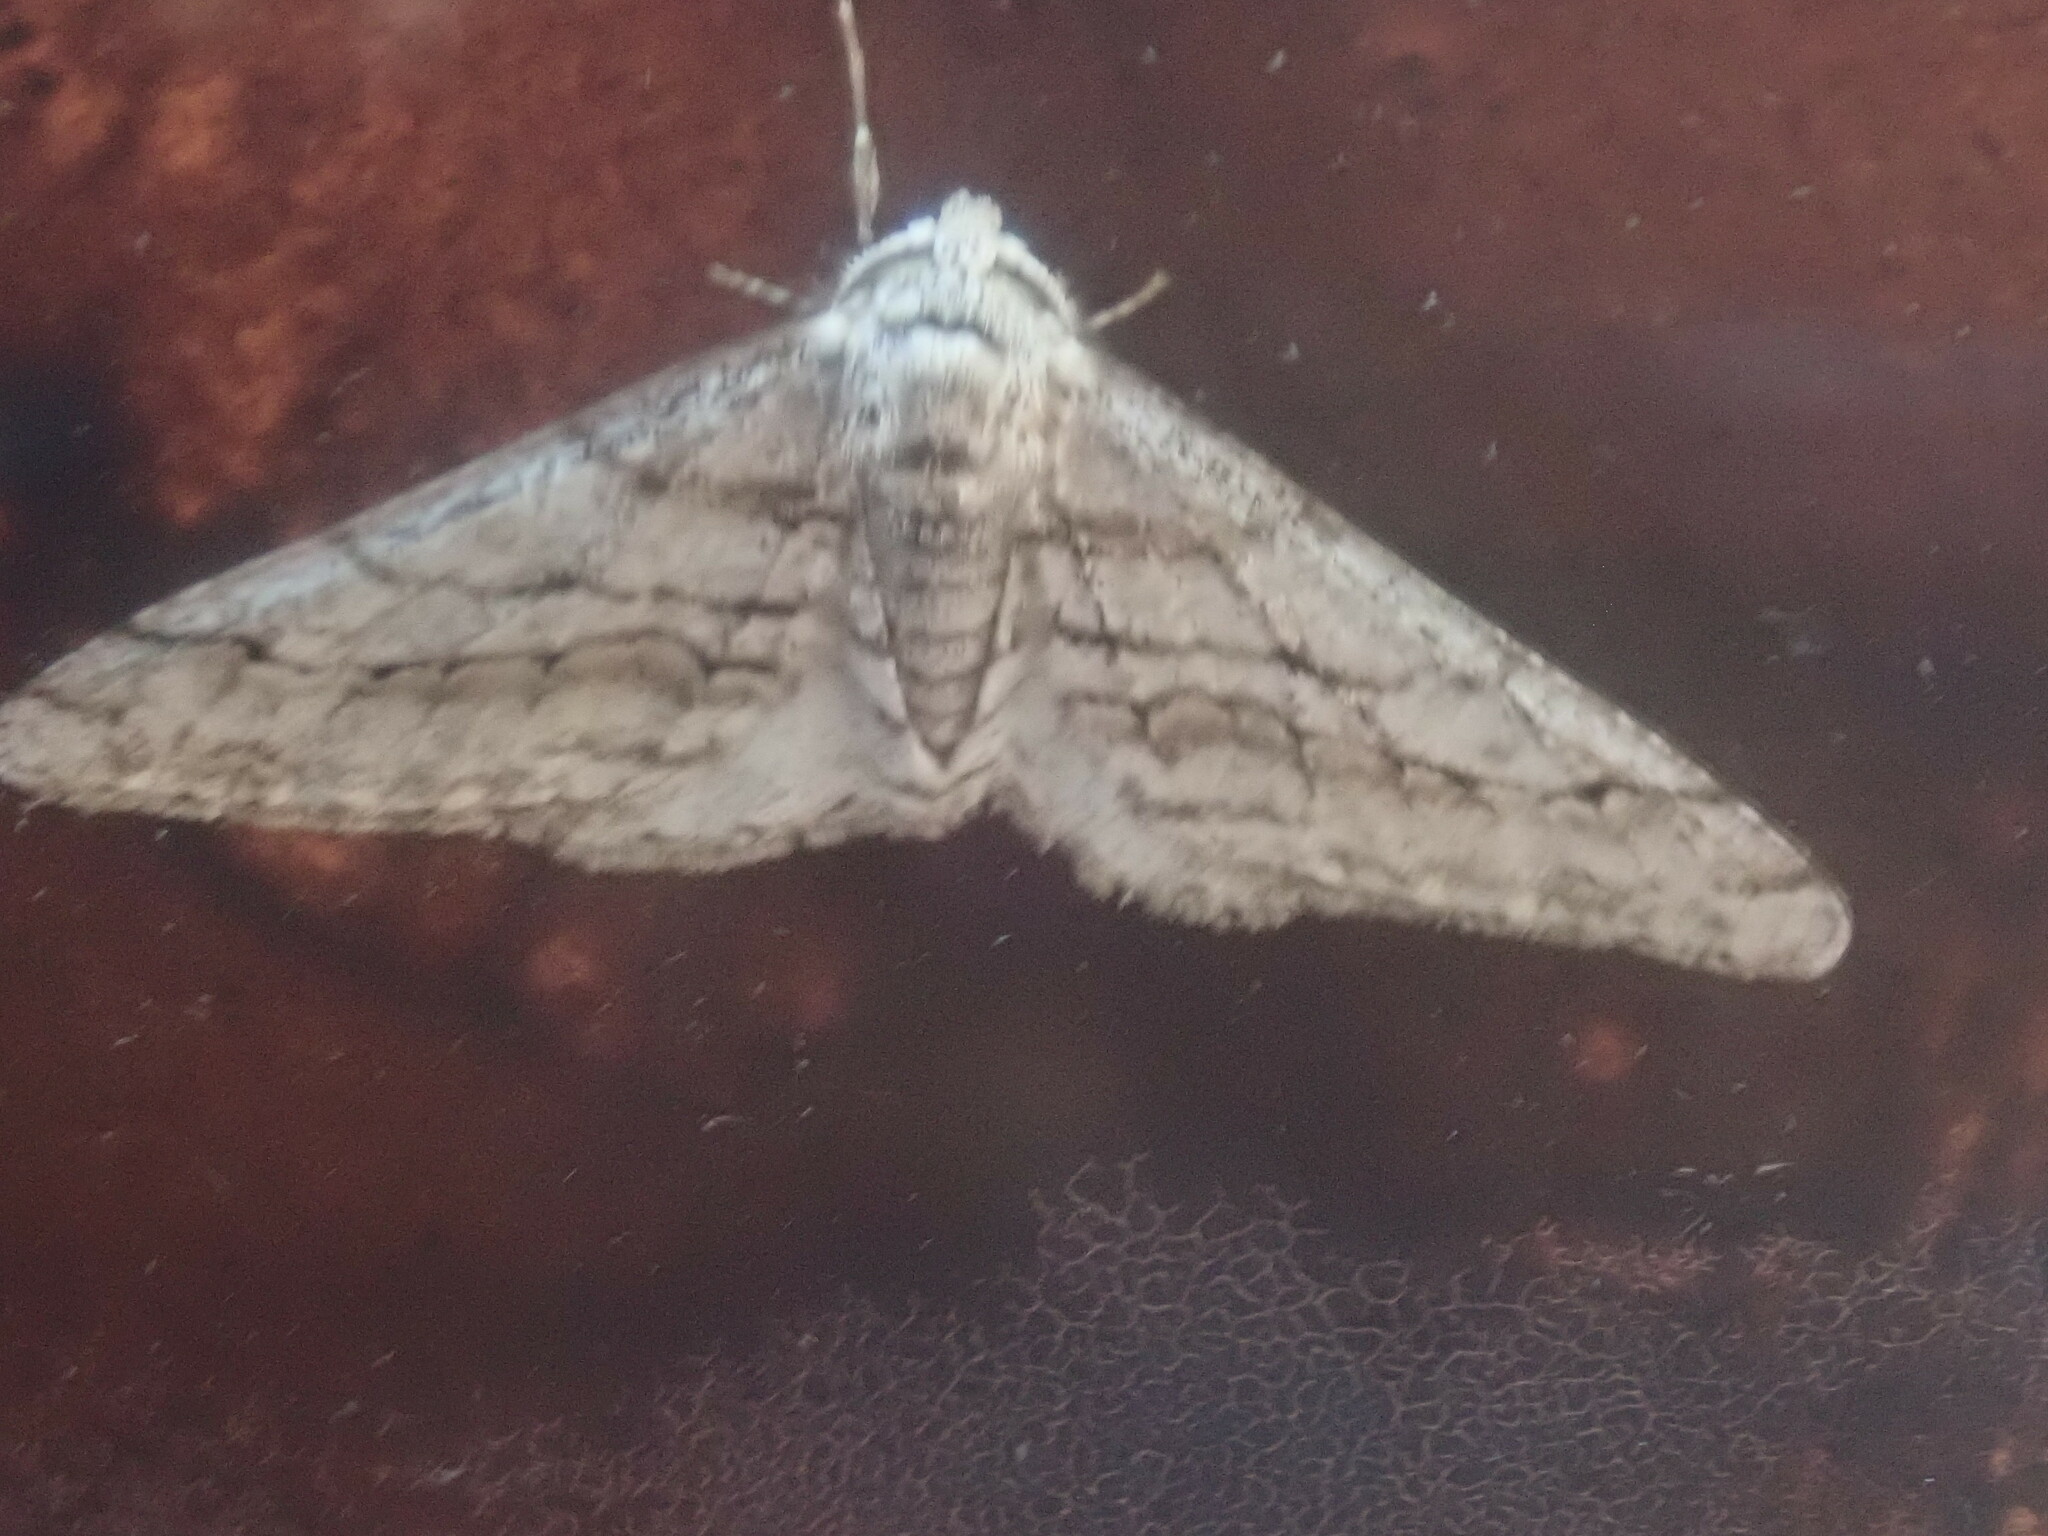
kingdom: Animalia
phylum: Arthropoda
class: Insecta
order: Lepidoptera
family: Geometridae
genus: Phigalia
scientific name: Phigalia titea
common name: Spiny looper
